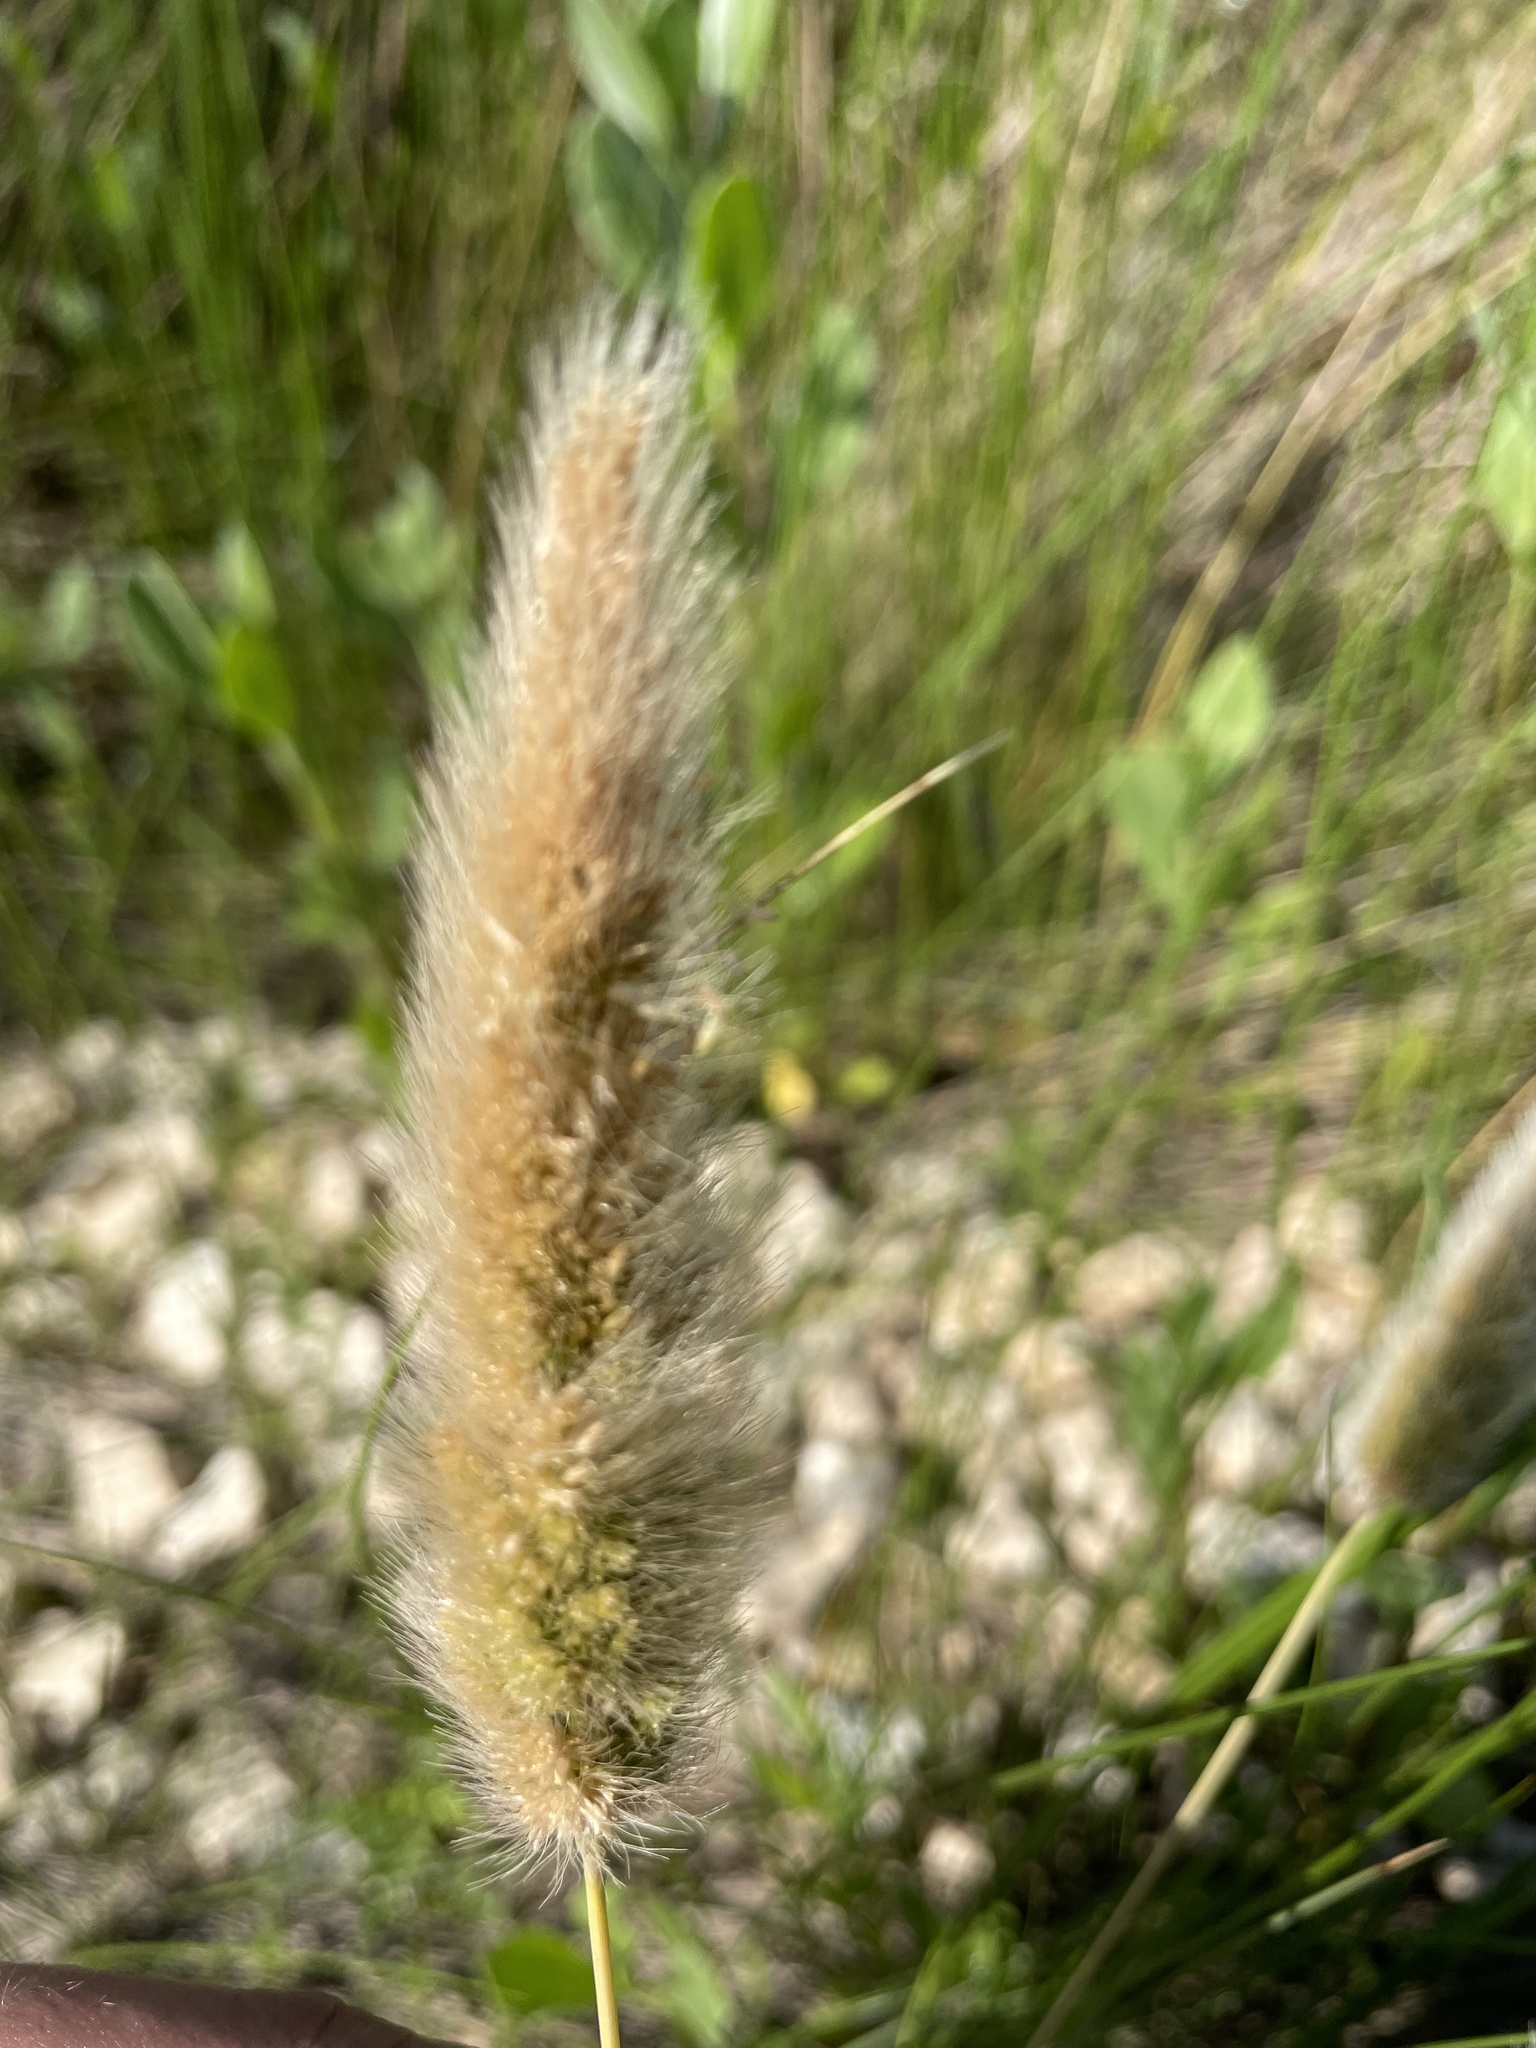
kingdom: Plantae
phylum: Tracheophyta
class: Liliopsida
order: Poales
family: Poaceae
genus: Polypogon
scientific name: Polypogon monspeliensis
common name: Annual rabbitsfoot grass
